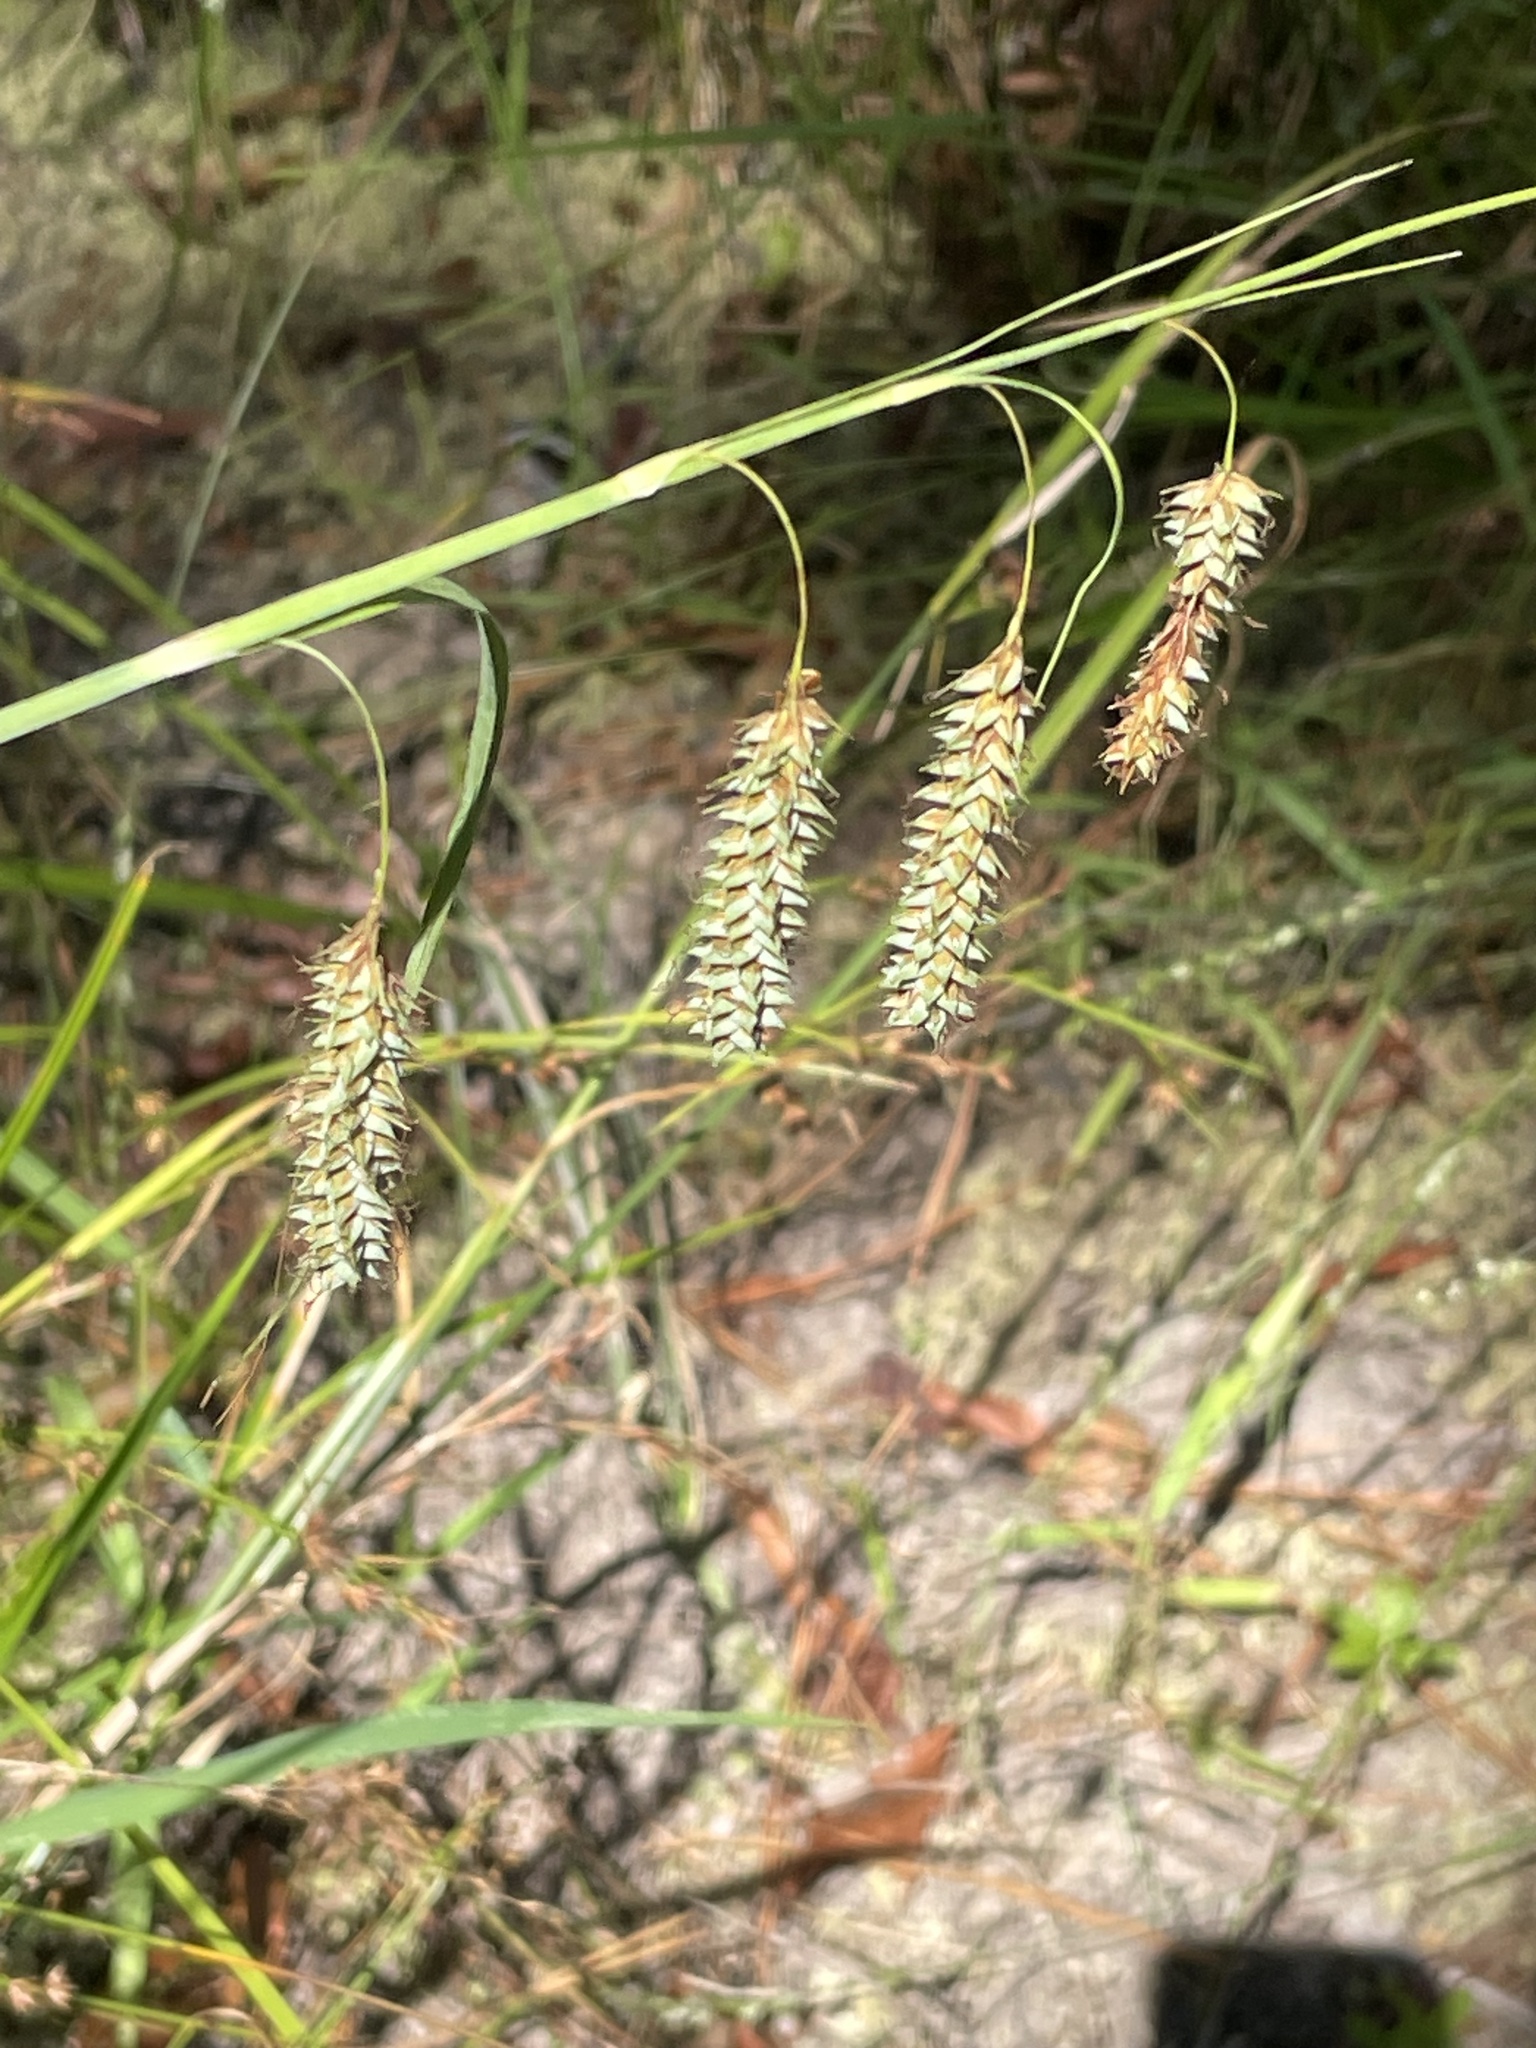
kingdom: Plantae
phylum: Tracheophyta
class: Liliopsida
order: Poales
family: Cyperaceae
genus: Carex
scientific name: Carex glaucescens
